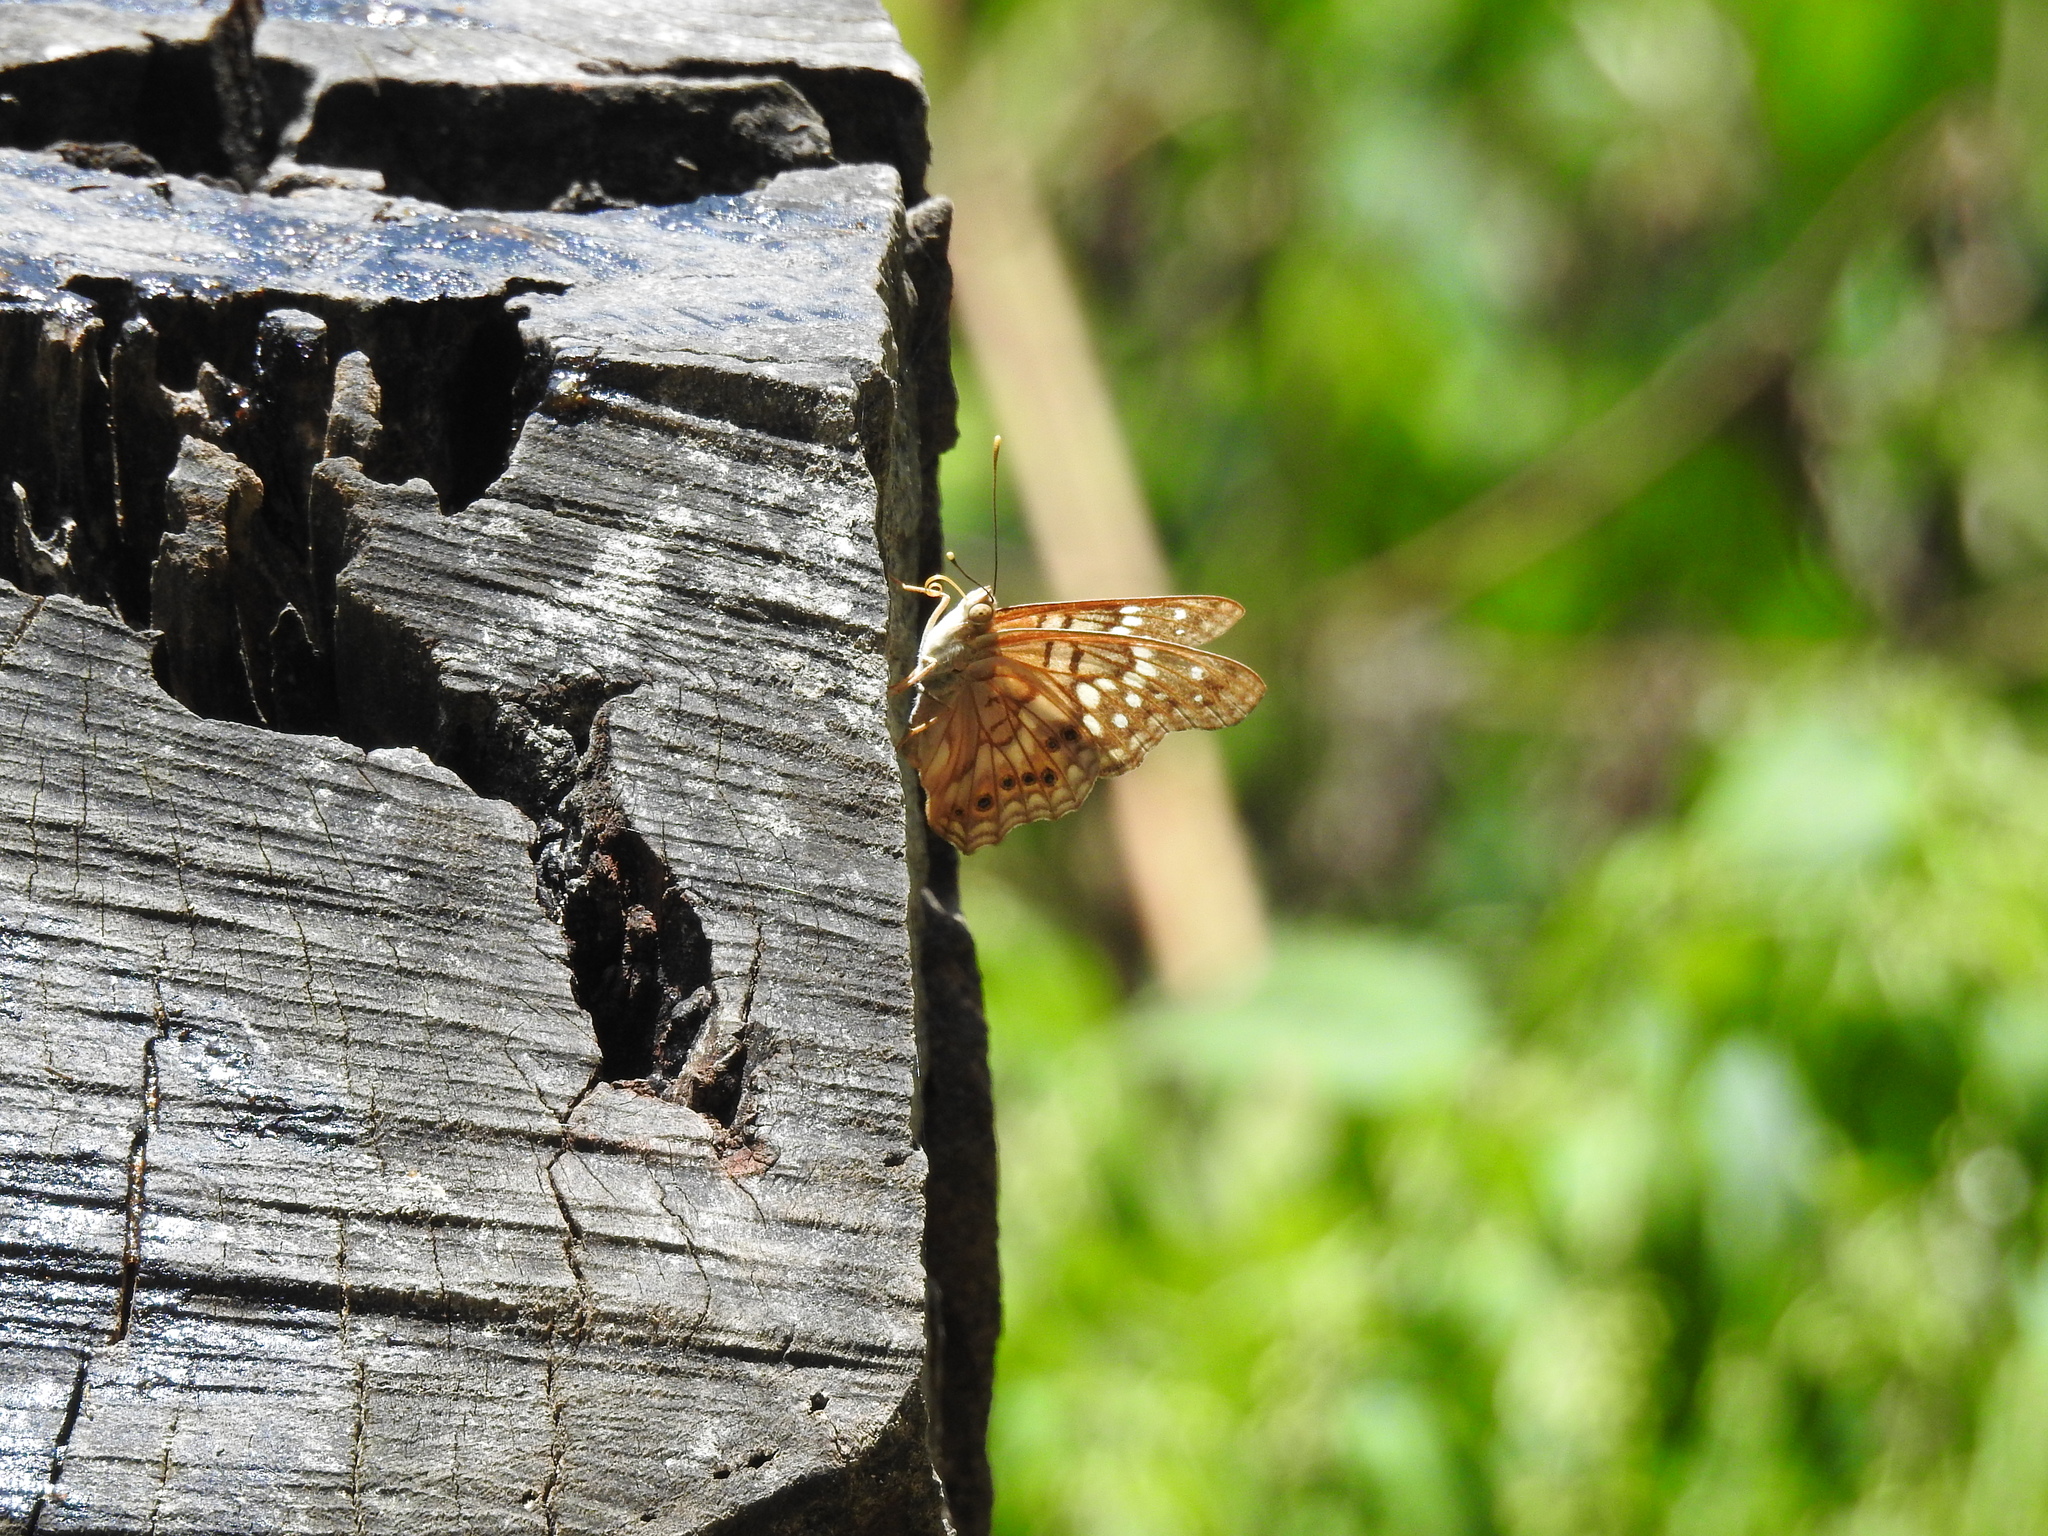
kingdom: Animalia
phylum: Arthropoda
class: Insecta
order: Lepidoptera
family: Nymphalidae
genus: Asterocampa
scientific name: Asterocampa clyton
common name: Tawny emperor
